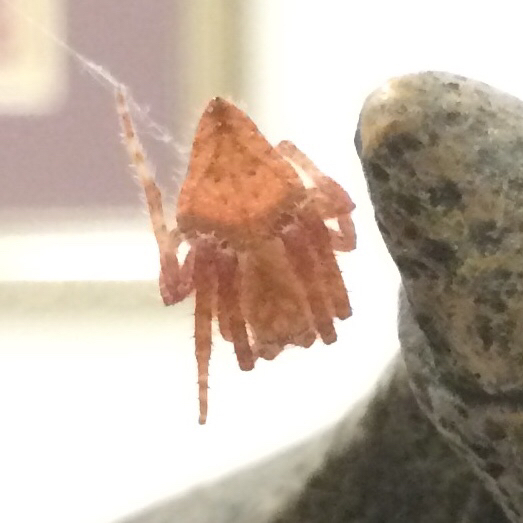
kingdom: Animalia
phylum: Arthropoda
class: Arachnida
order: Araneae
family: Araneidae
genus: Eriophora
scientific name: Eriophora edax
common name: Orb weavers
